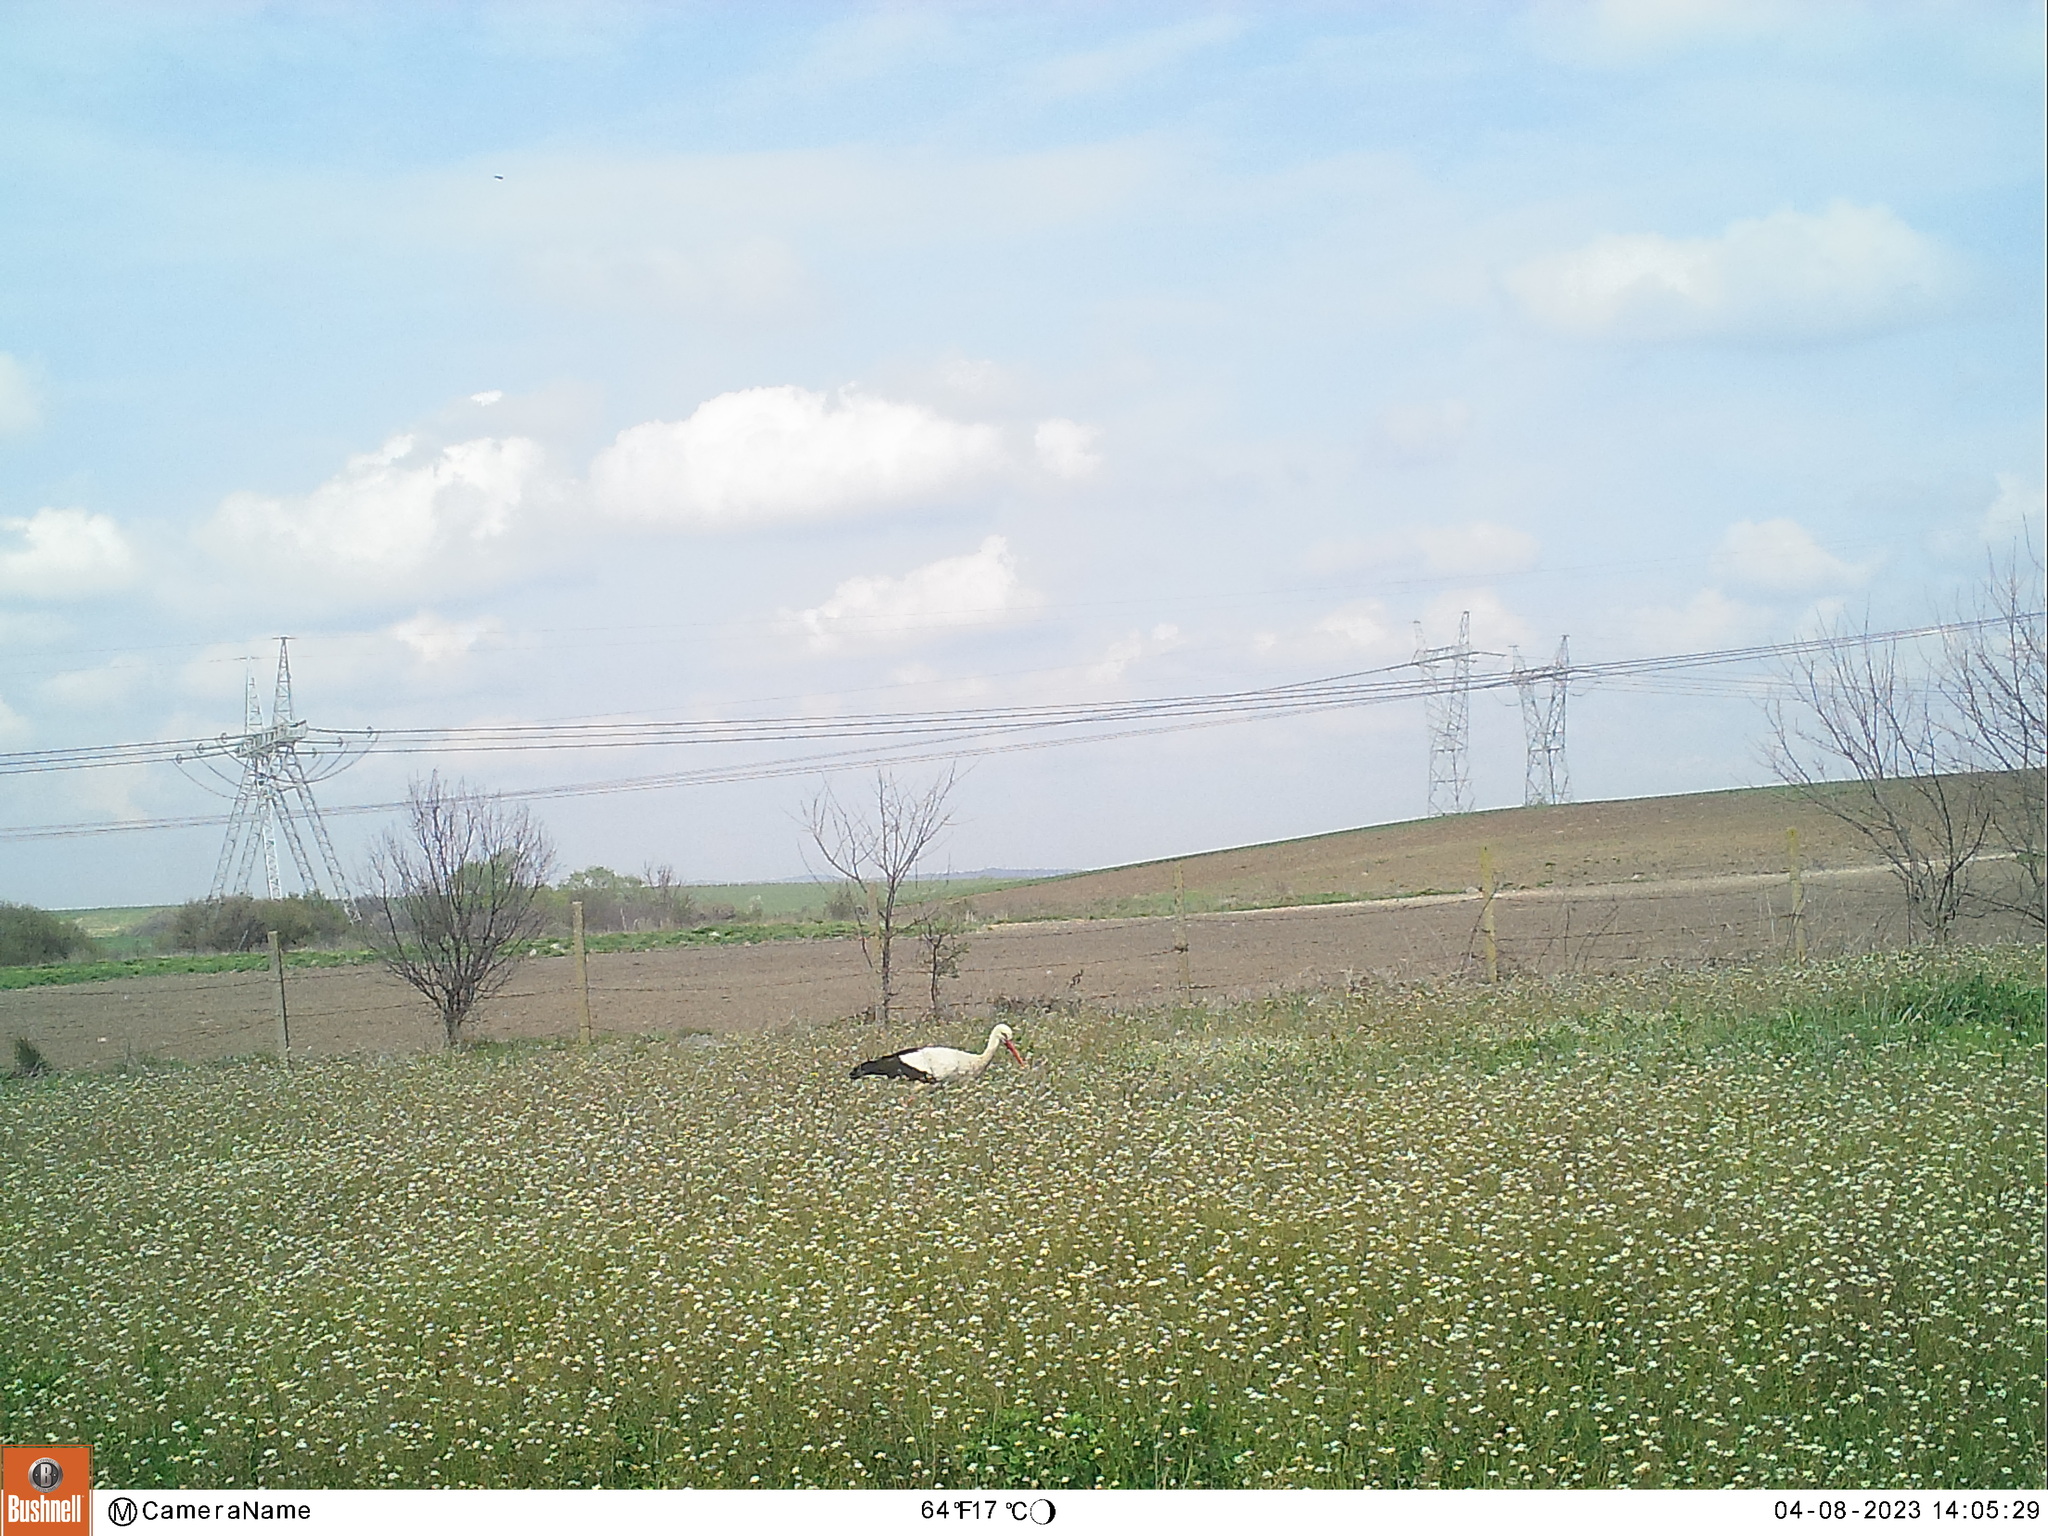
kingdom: Animalia
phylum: Chordata
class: Aves
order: Ciconiiformes
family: Ciconiidae
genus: Ciconia
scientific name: Ciconia ciconia
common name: White stork
